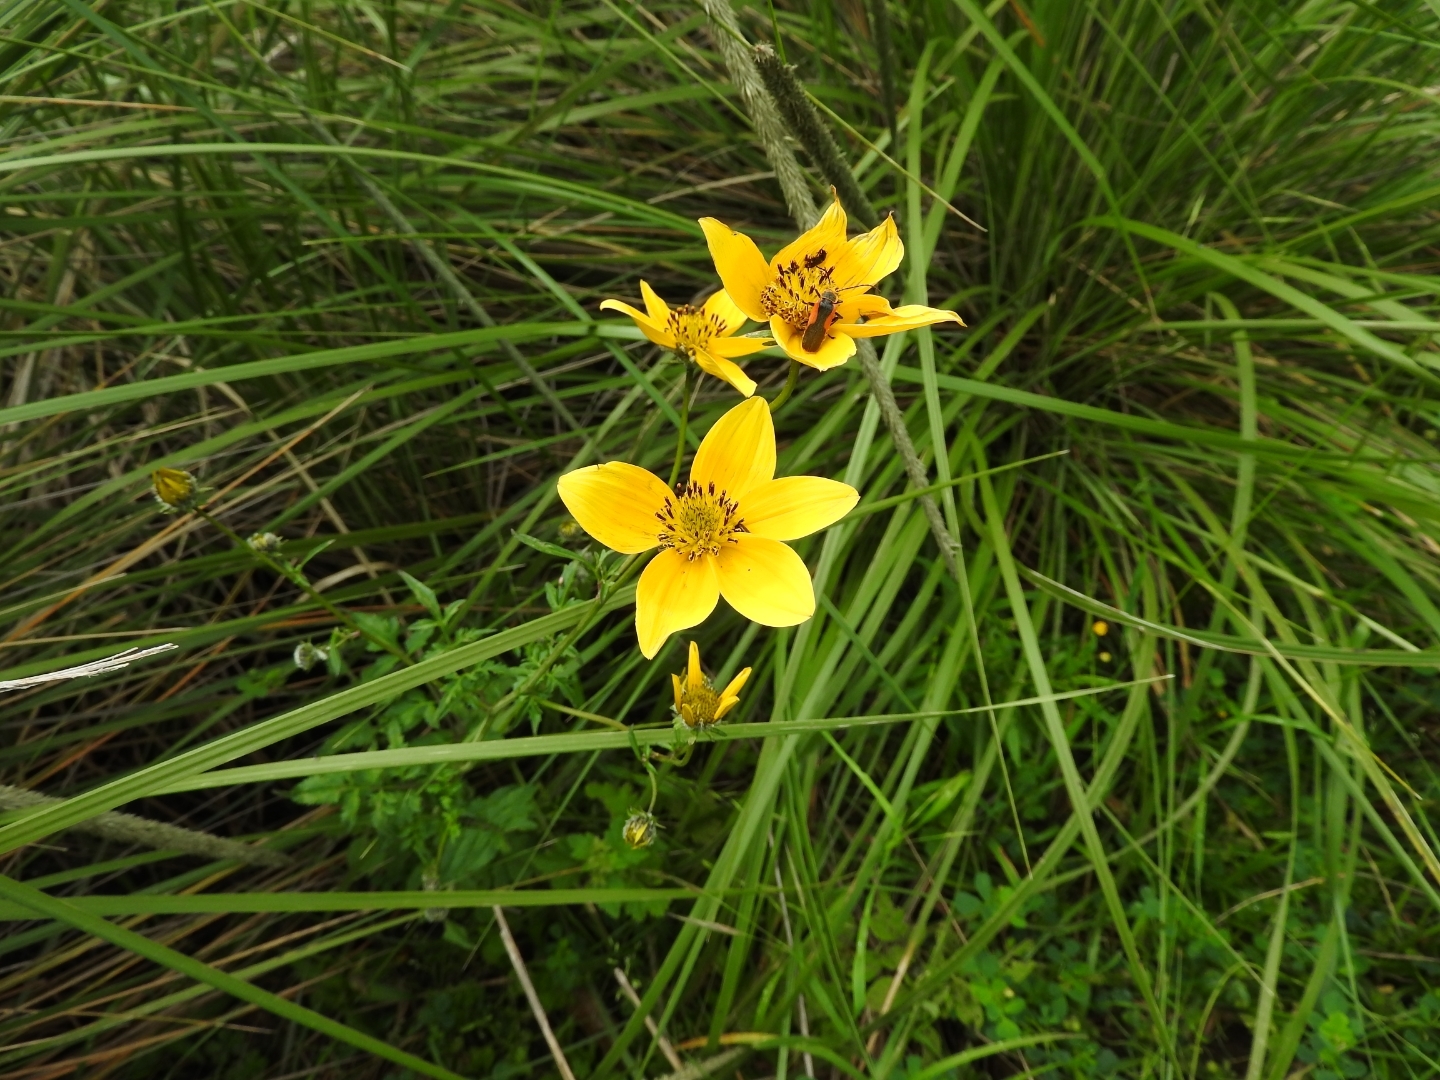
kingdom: Plantae
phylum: Tracheophyta
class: Magnoliopsida
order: Asterales
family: Asteraceae
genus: Bidens
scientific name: Bidens serrulata
